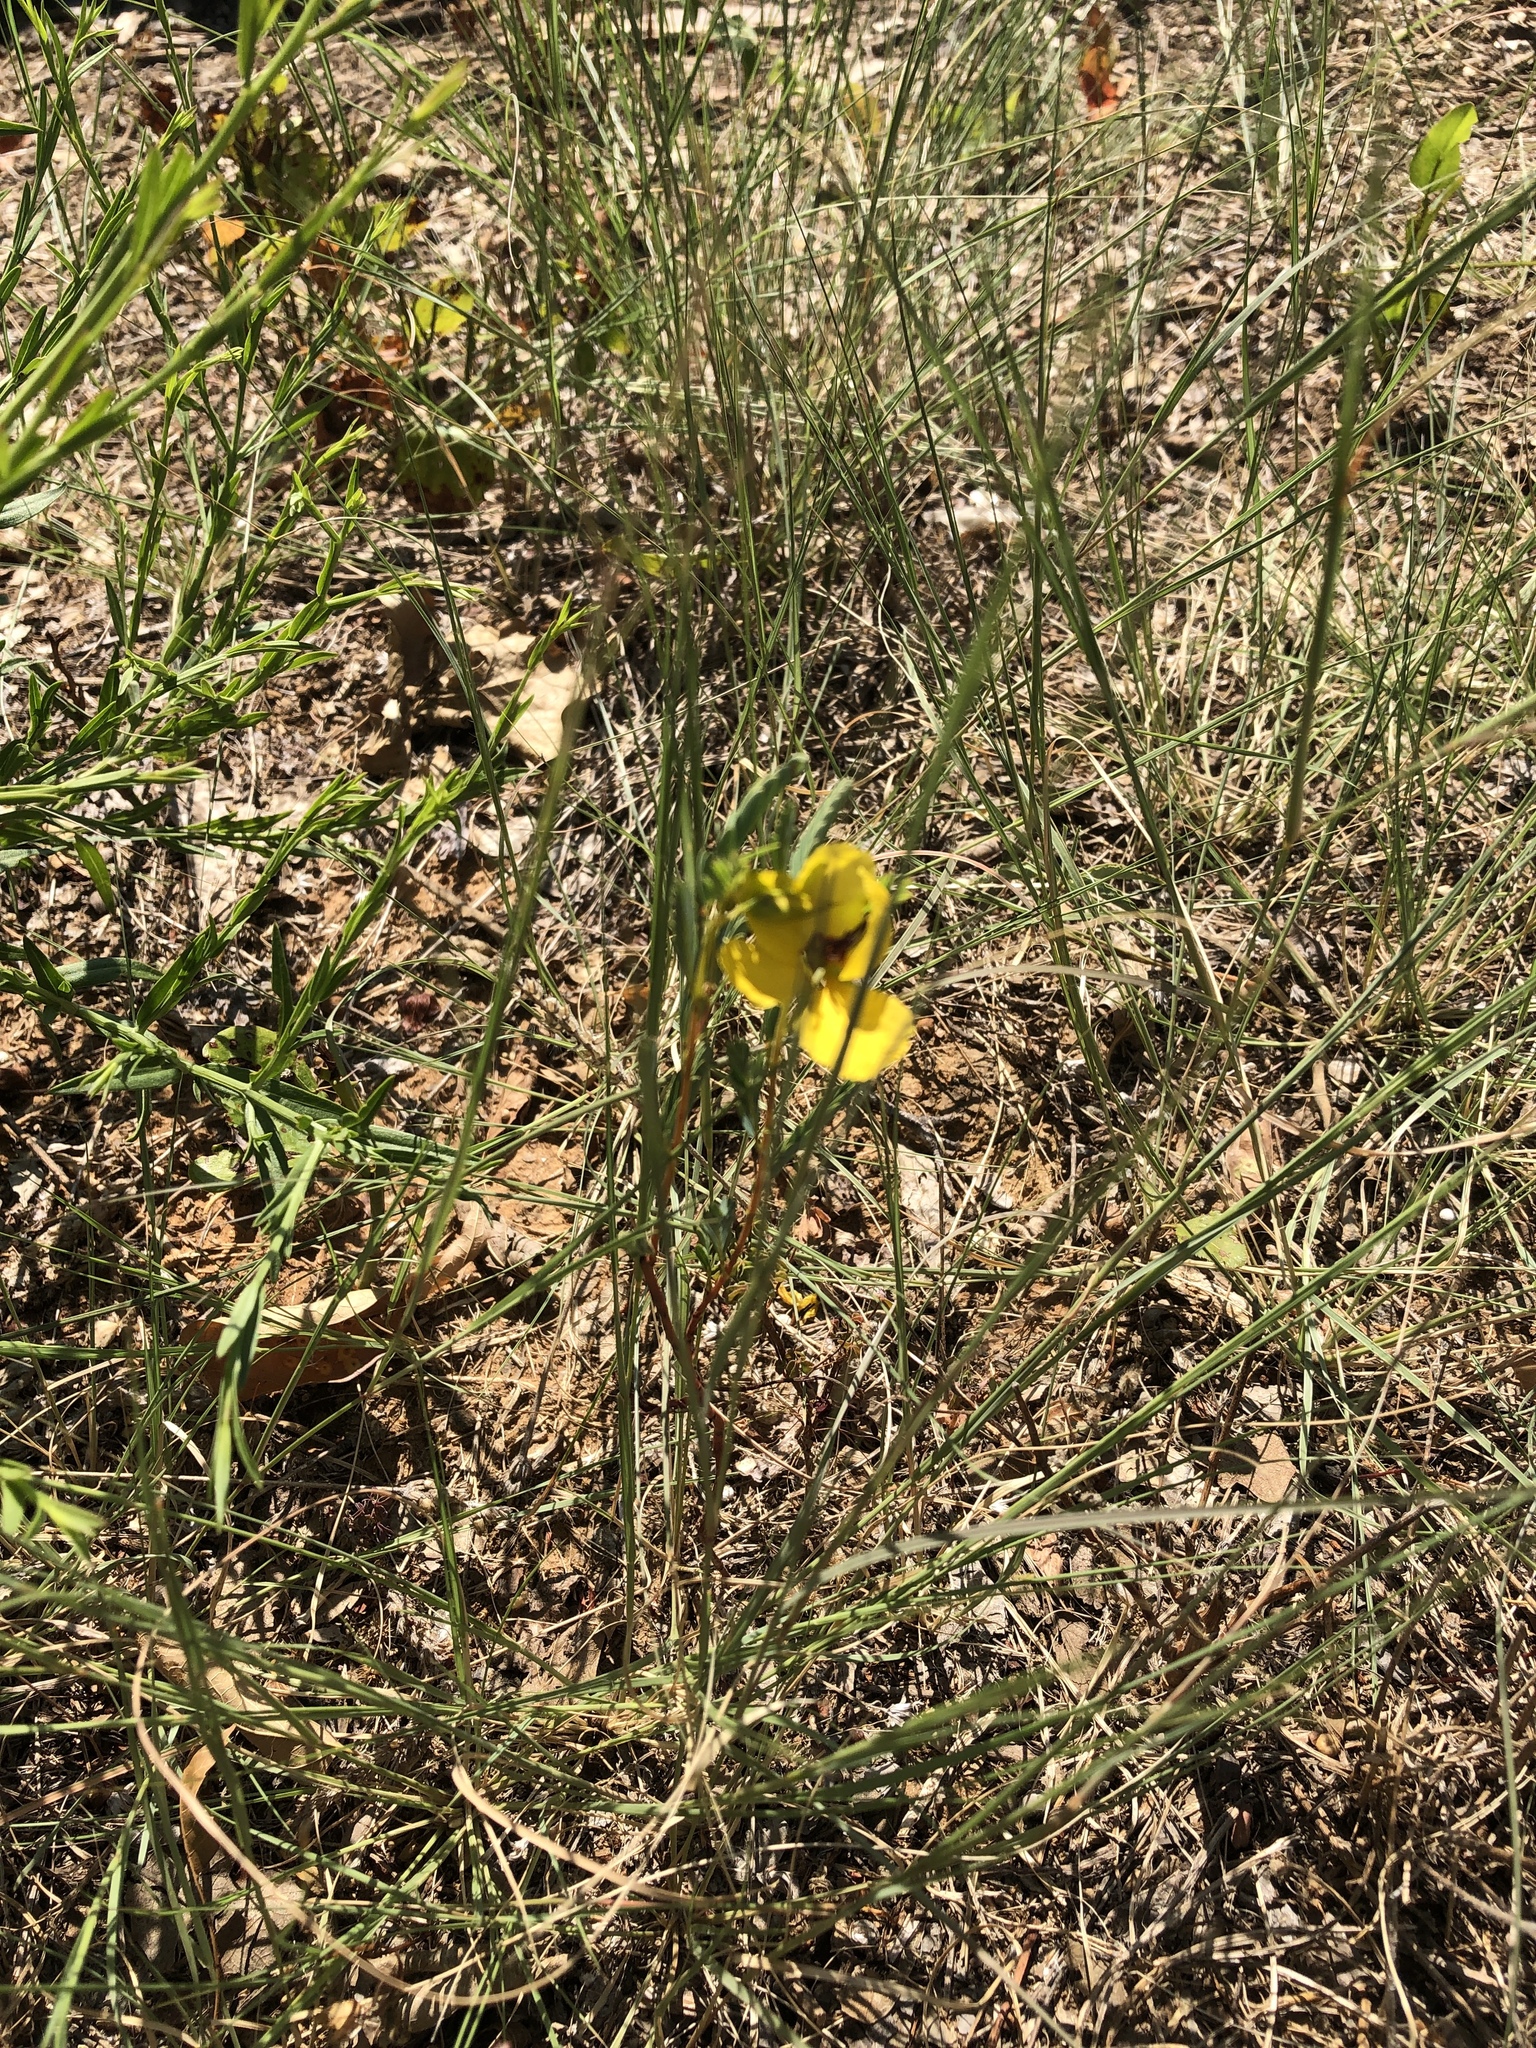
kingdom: Plantae
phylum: Tracheophyta
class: Magnoliopsida
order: Fabales
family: Fabaceae
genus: Chamaecrista
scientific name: Chamaecrista fasciculata
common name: Golden cassia
